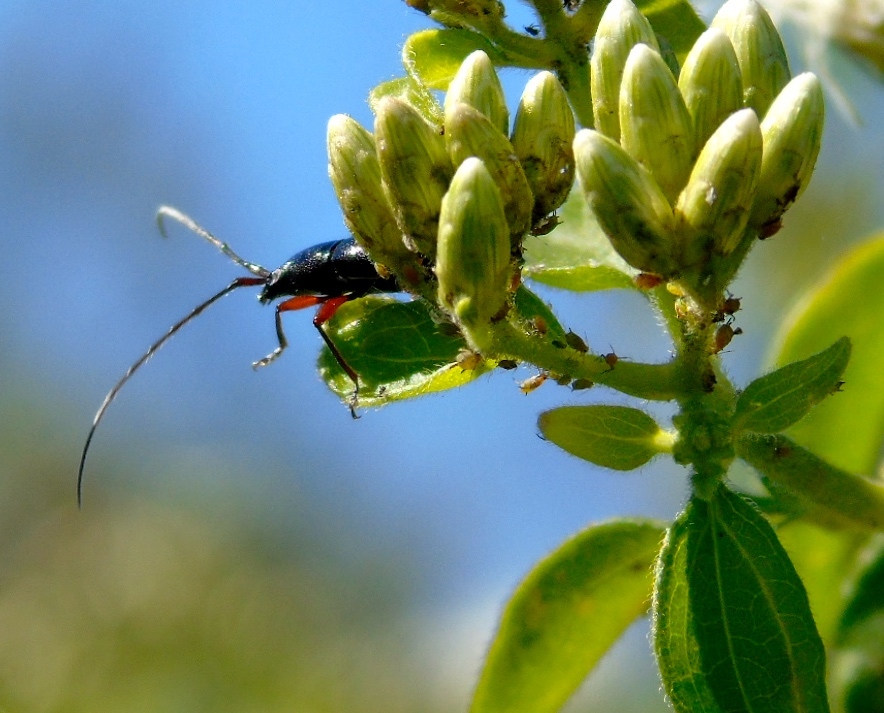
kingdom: Animalia
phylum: Arthropoda
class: Insecta
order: Coleoptera
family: Cerambycidae
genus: Stenosphenus
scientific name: Stenosphenus
